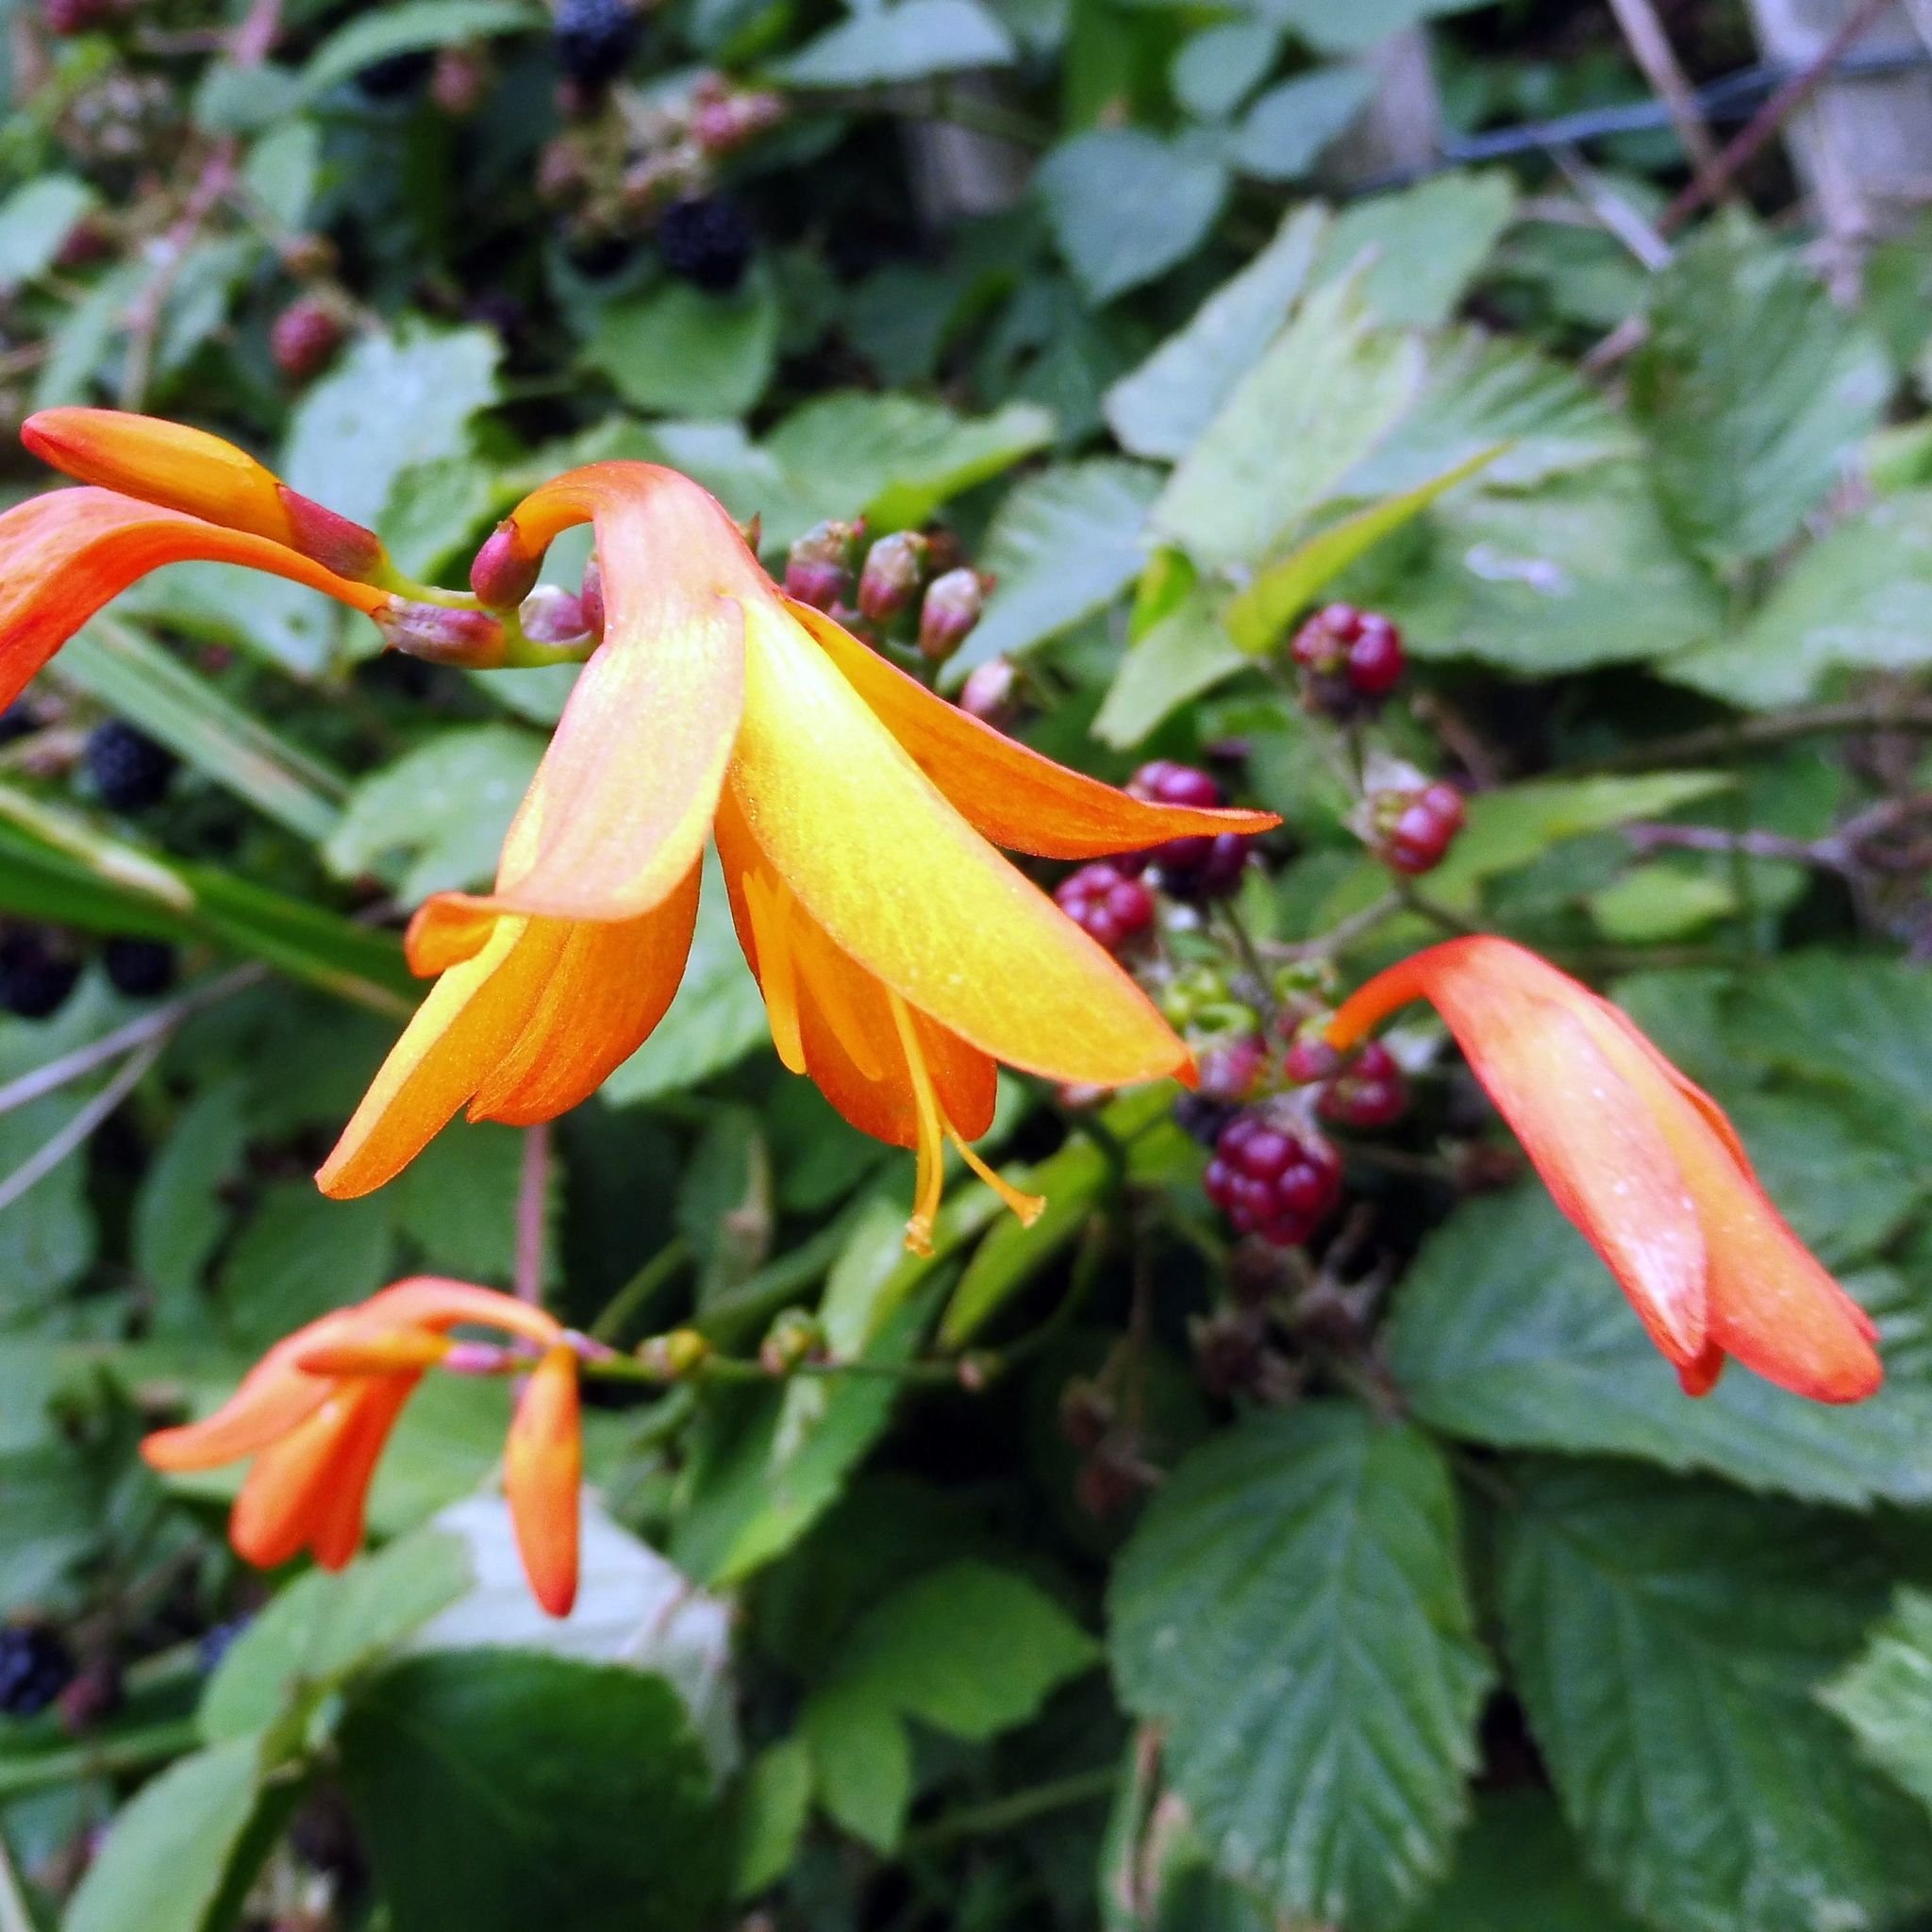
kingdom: Plantae
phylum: Tracheophyta
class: Liliopsida
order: Asparagales
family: Iridaceae
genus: Crocosmia
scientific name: Crocosmia crocosmiiflora
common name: Montbretia
